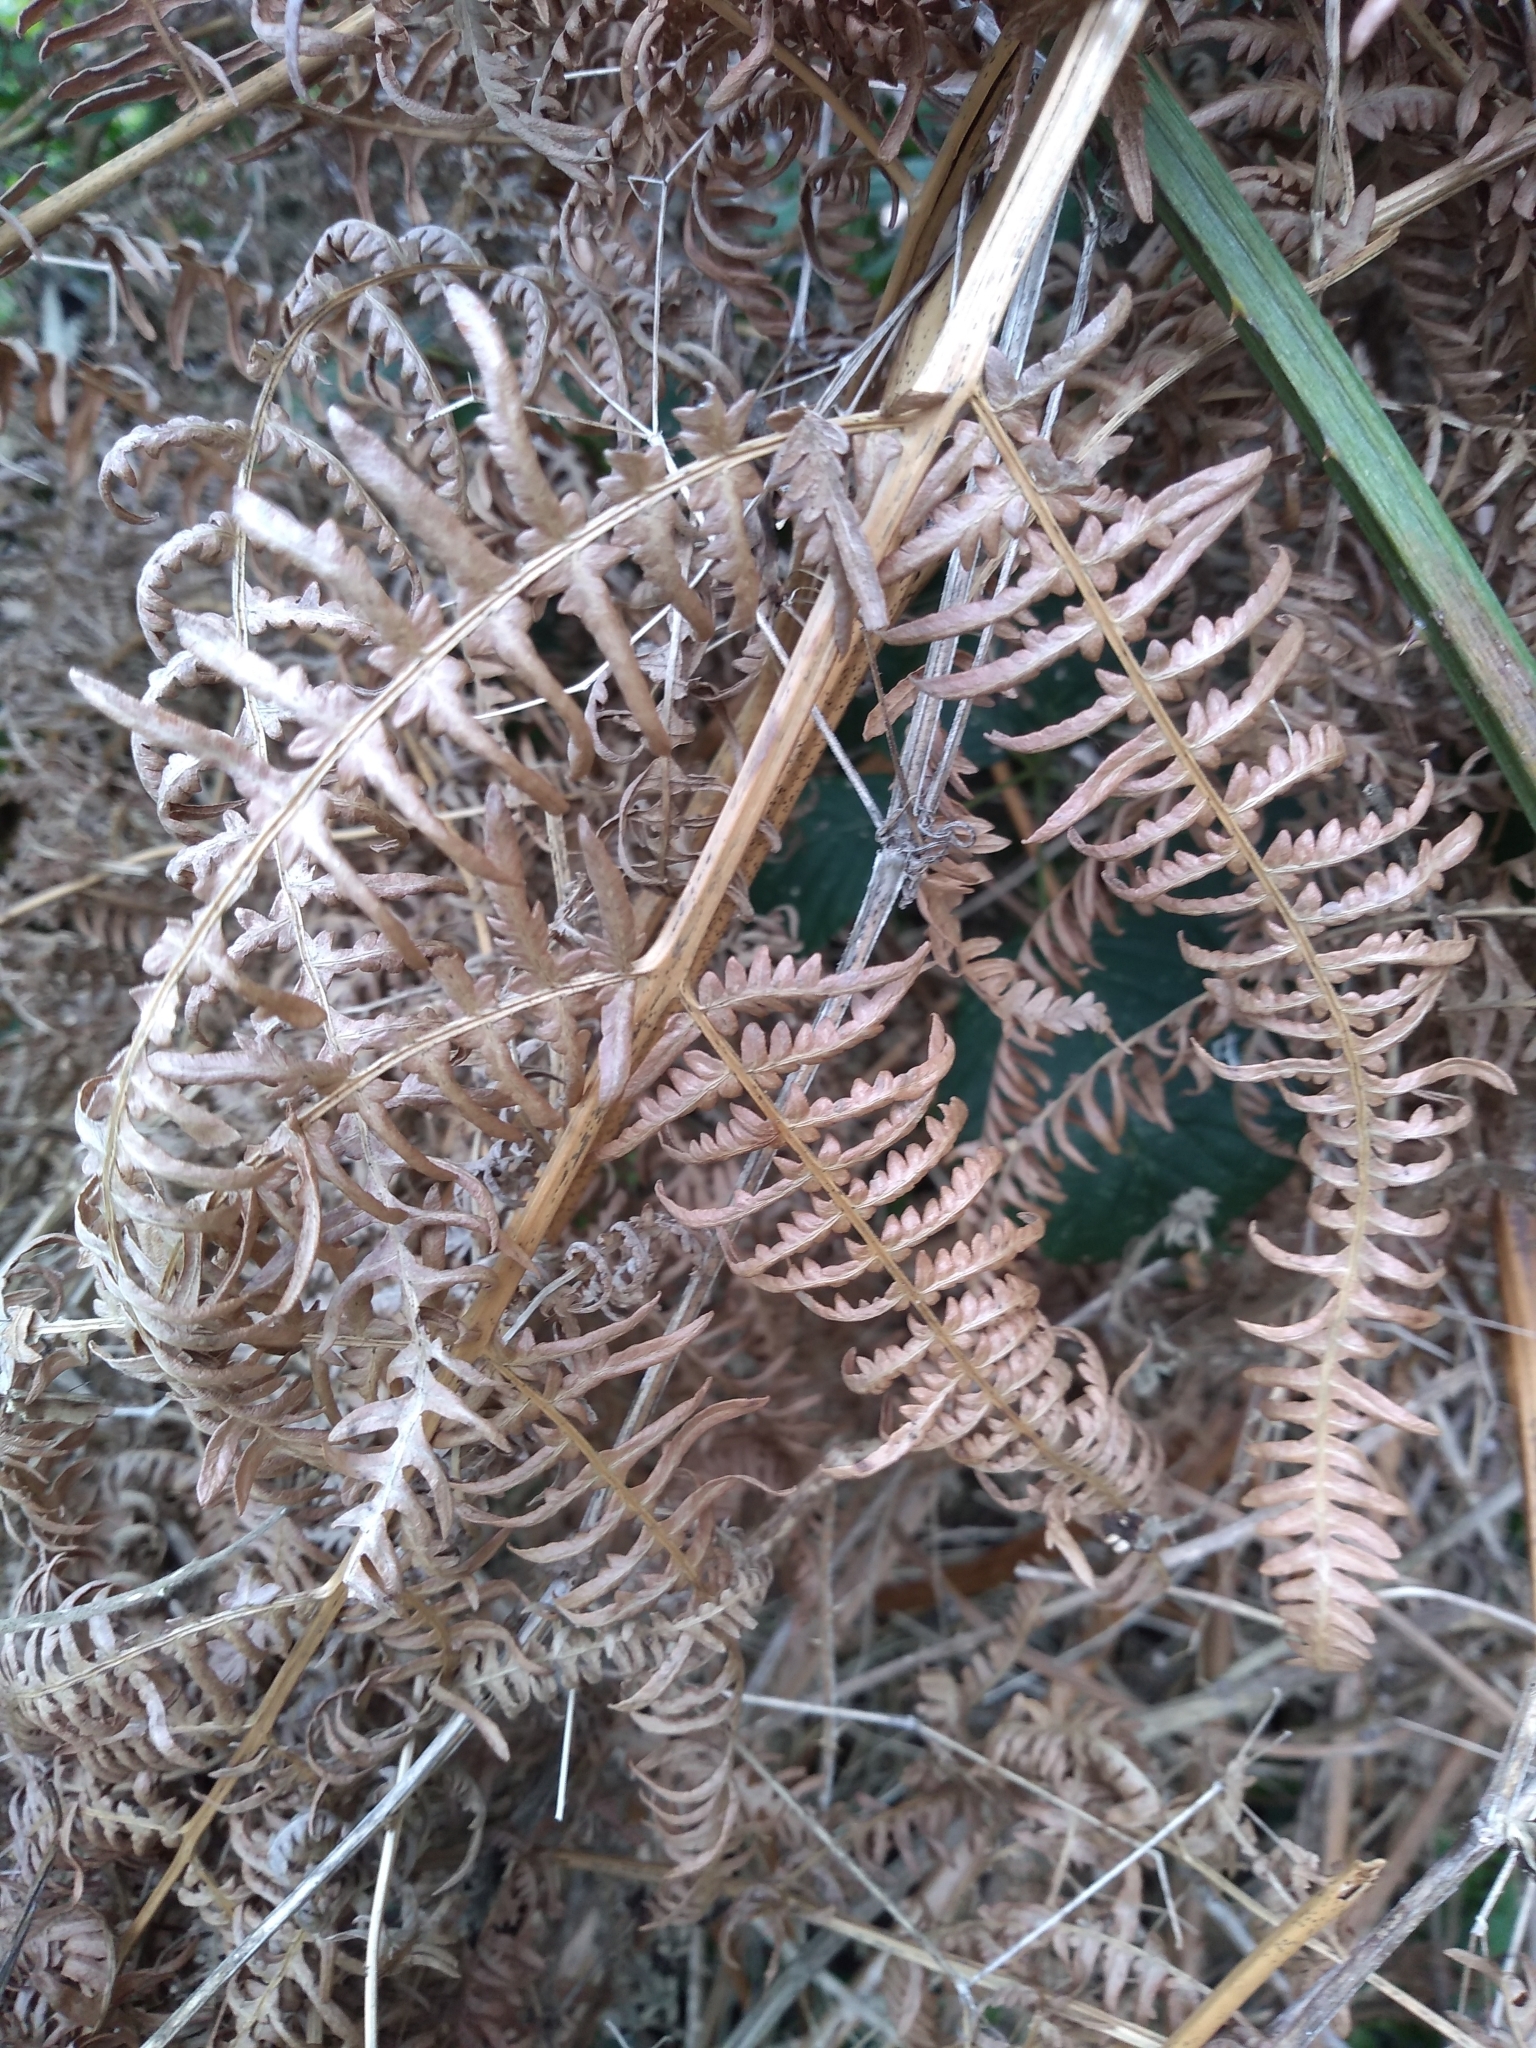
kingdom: Plantae
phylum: Tracheophyta
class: Polypodiopsida
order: Polypodiales
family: Dennstaedtiaceae
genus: Pteridium
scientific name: Pteridium aquilinum
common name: Bracken
